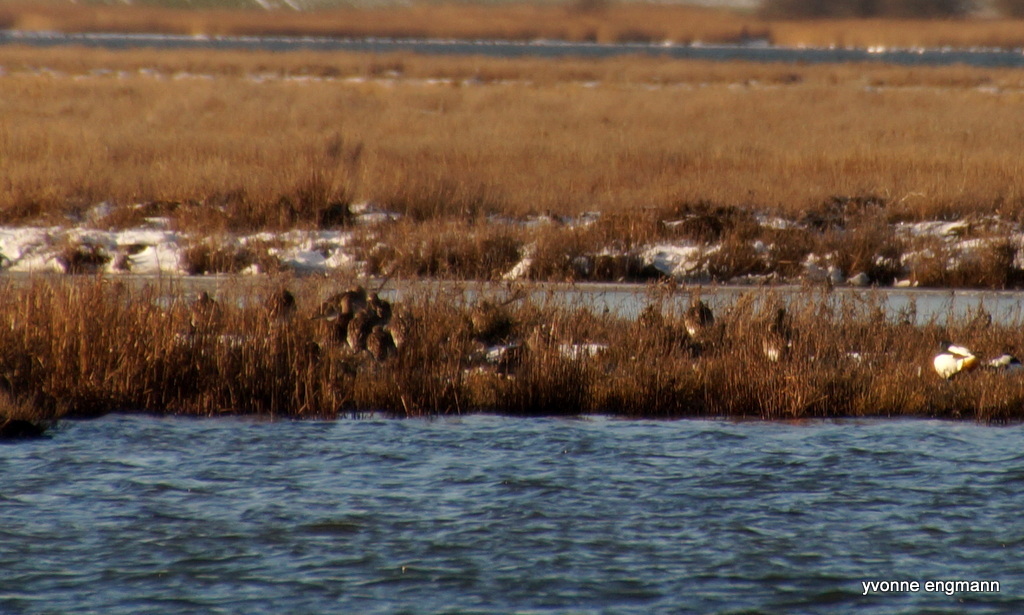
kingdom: Animalia
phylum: Chordata
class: Aves
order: Charadriiformes
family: Scolopacidae
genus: Numenius
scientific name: Numenius arquata
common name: Eurasian curlew
